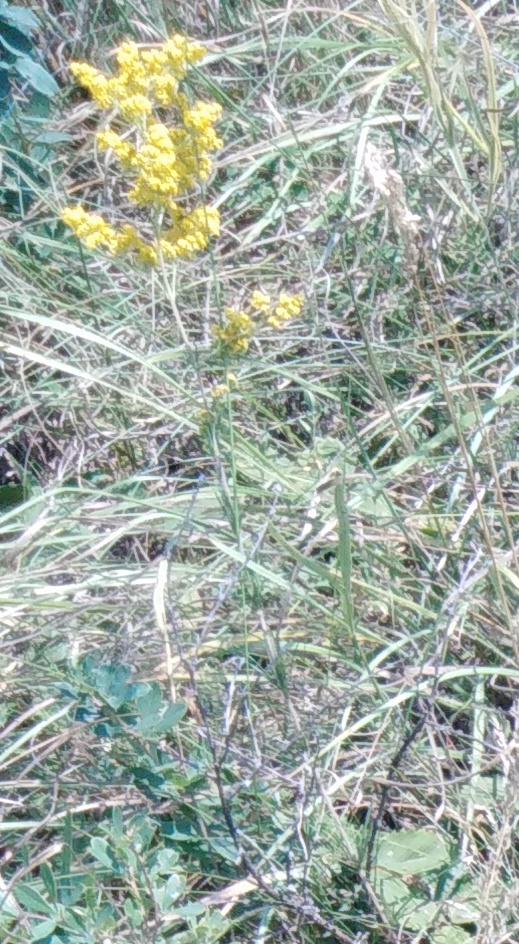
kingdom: Plantae
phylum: Tracheophyta
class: Magnoliopsida
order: Gentianales
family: Rubiaceae
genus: Galium
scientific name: Galium verum
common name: Lady's bedstraw
